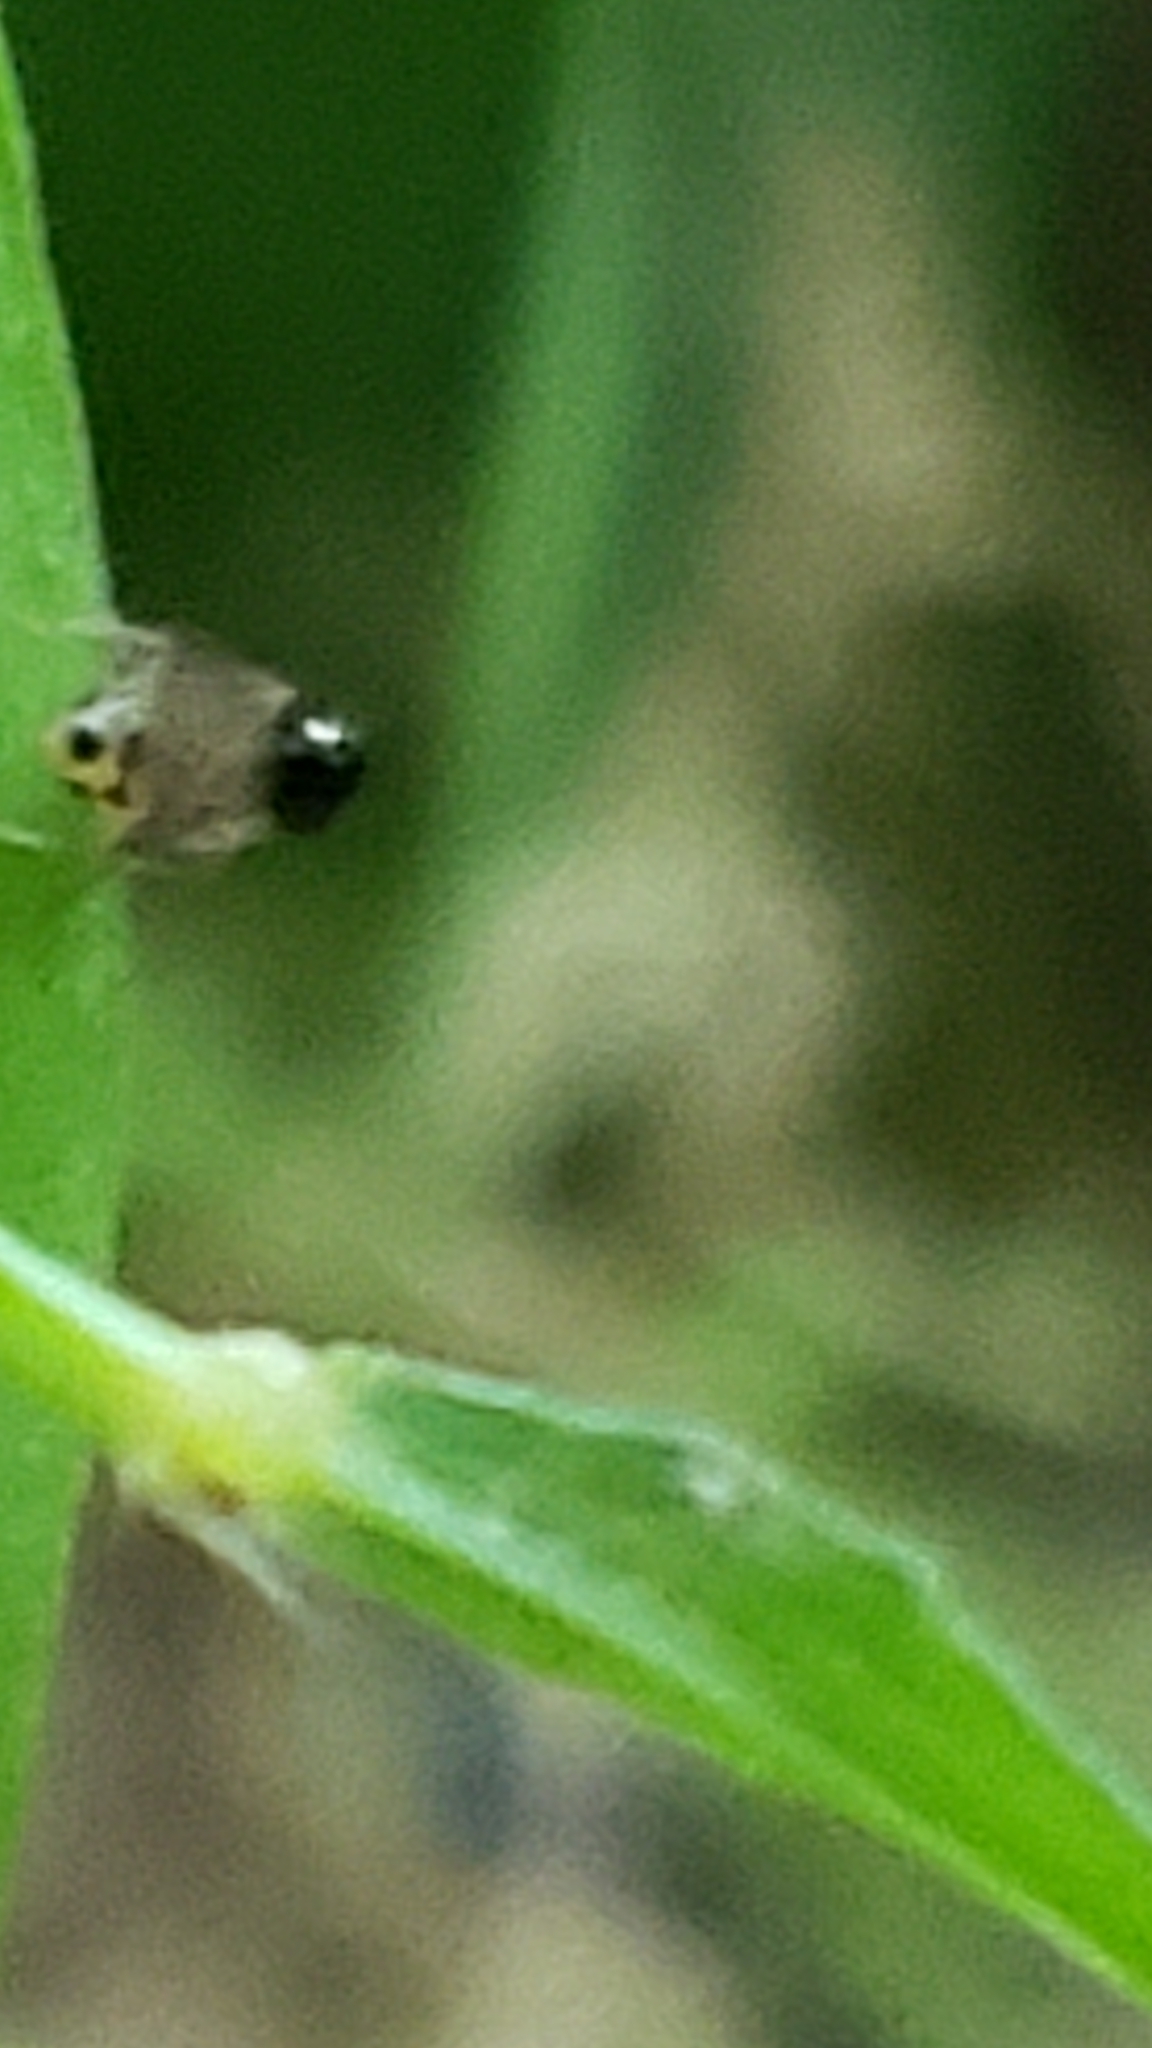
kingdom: Animalia
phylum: Arthropoda
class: Insecta
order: Diptera
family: Drosophilidae
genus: Mycodrosophila
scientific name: Mycodrosophila dimidiata
